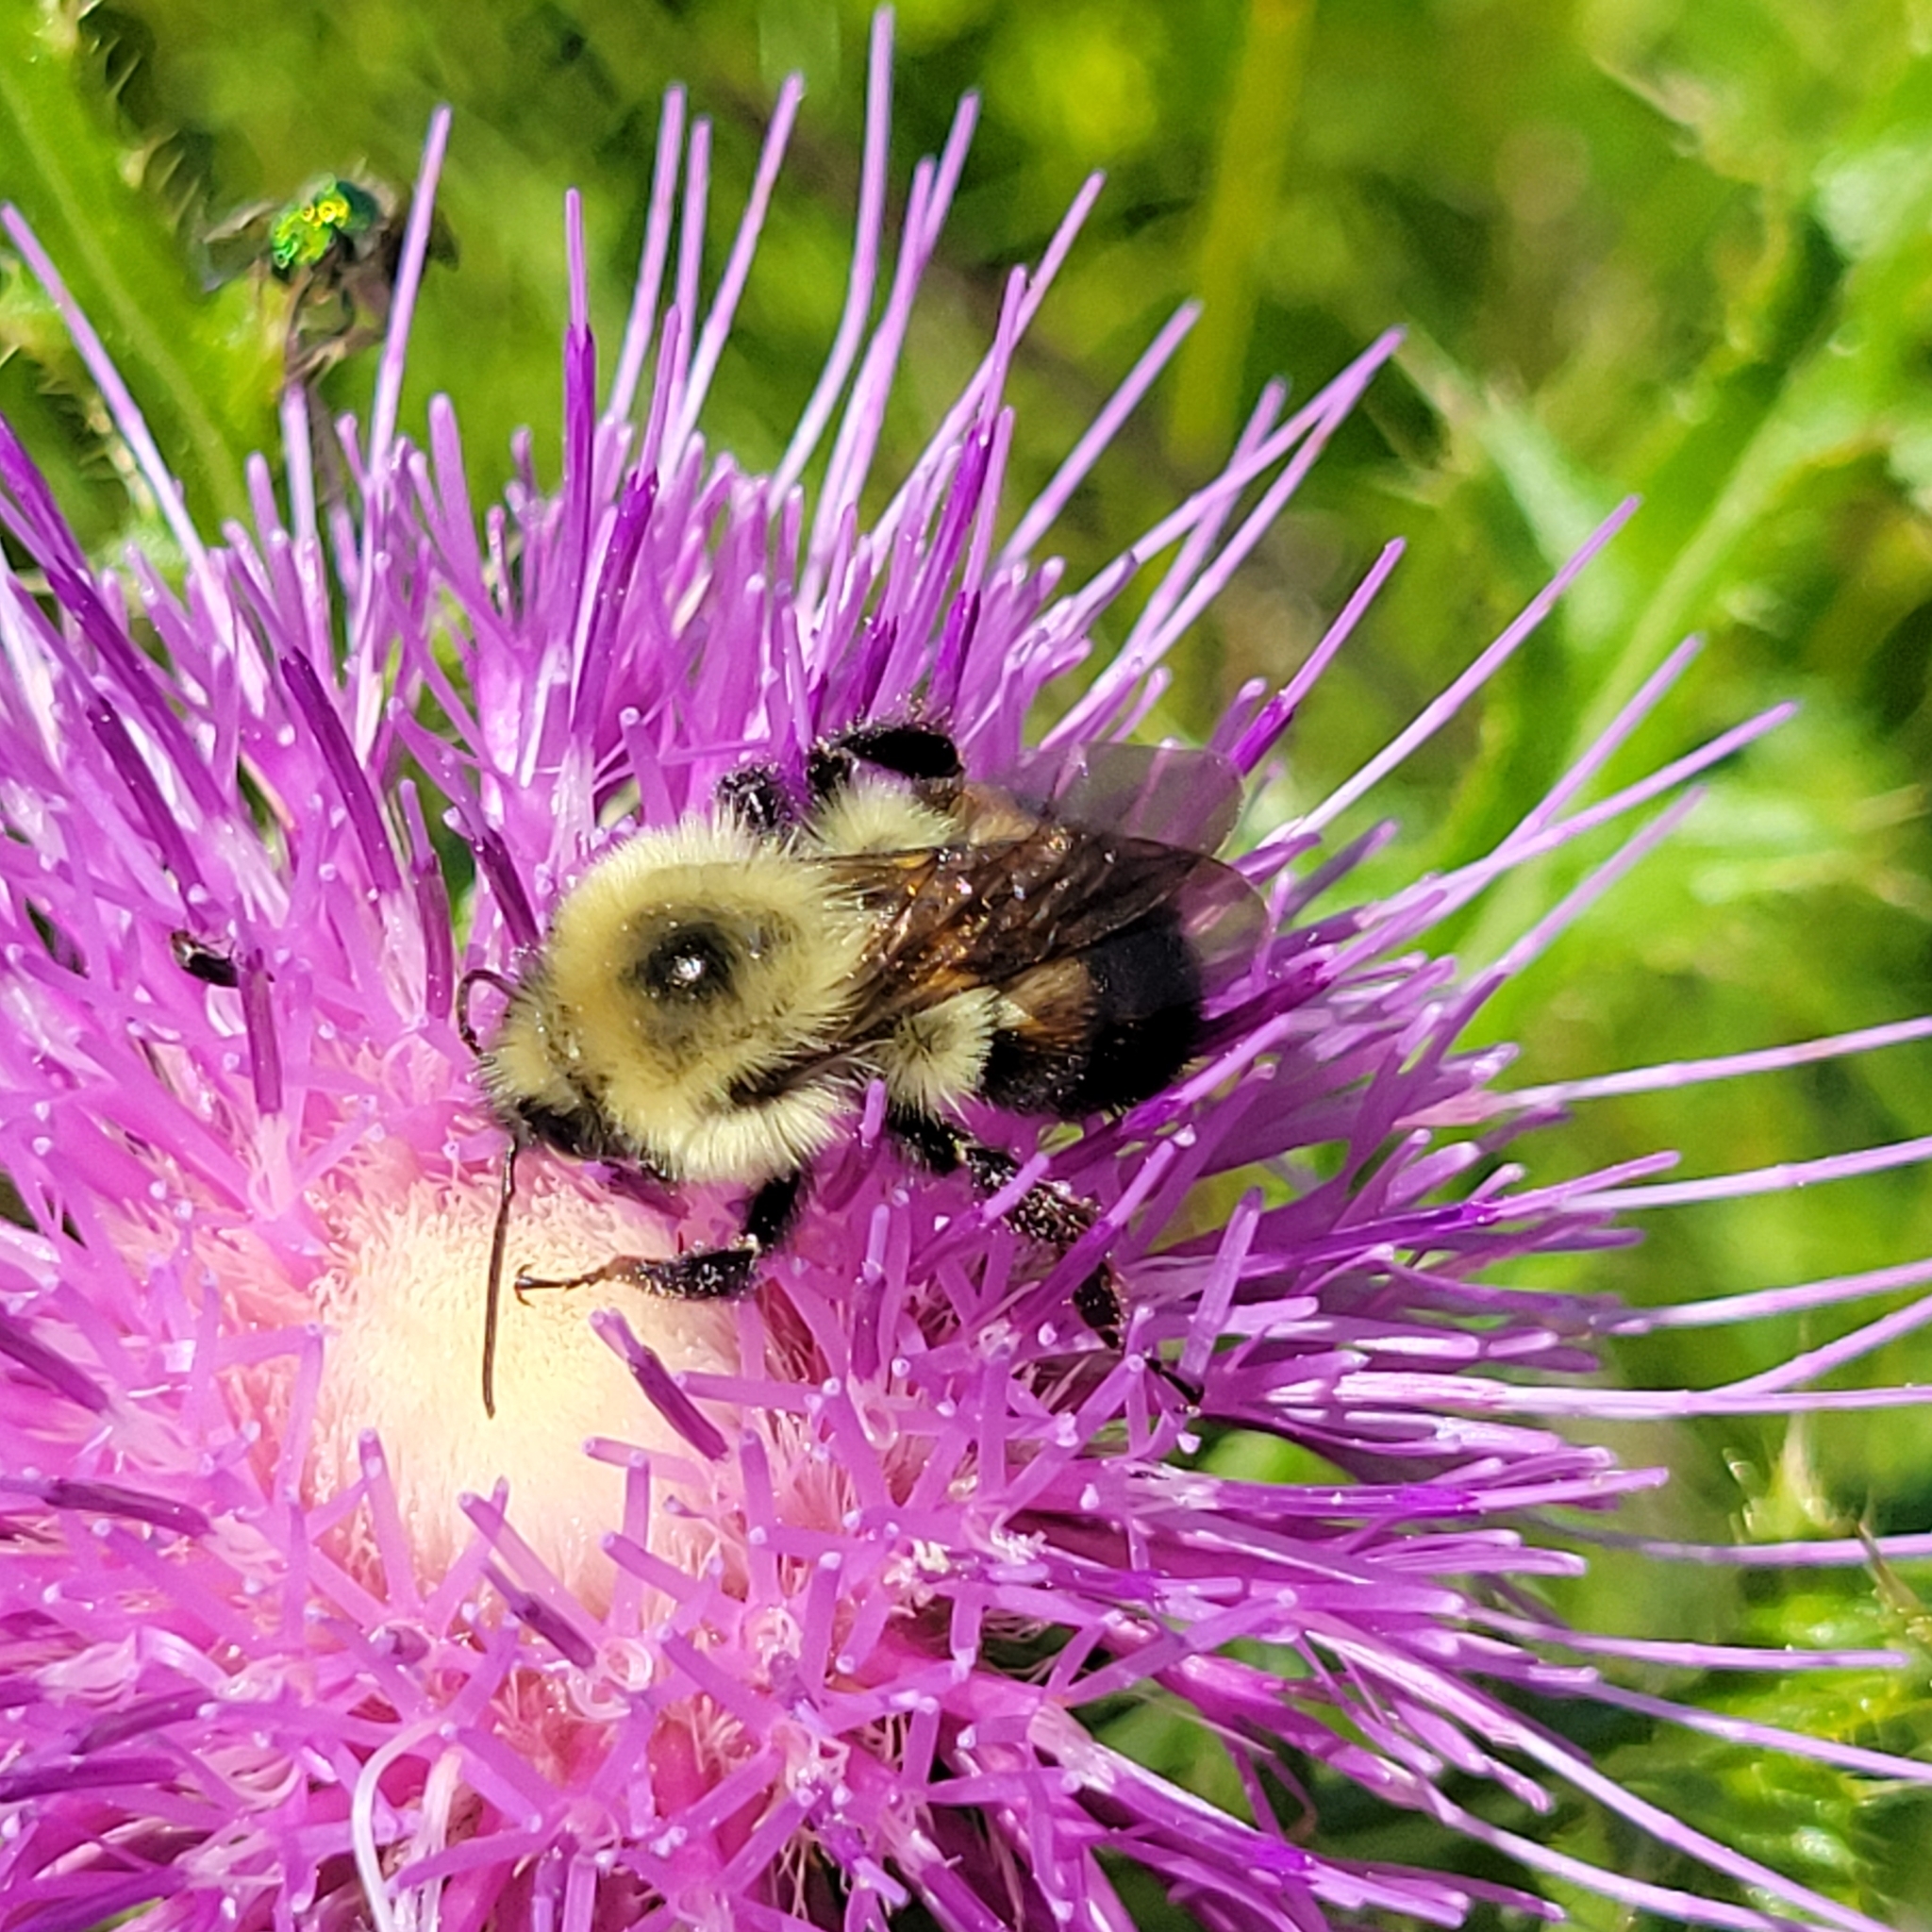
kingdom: Animalia
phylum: Arthropoda
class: Insecta
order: Hymenoptera
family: Apidae
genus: Bombus
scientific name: Bombus bimaculatus
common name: Two-spotted bumble bee
